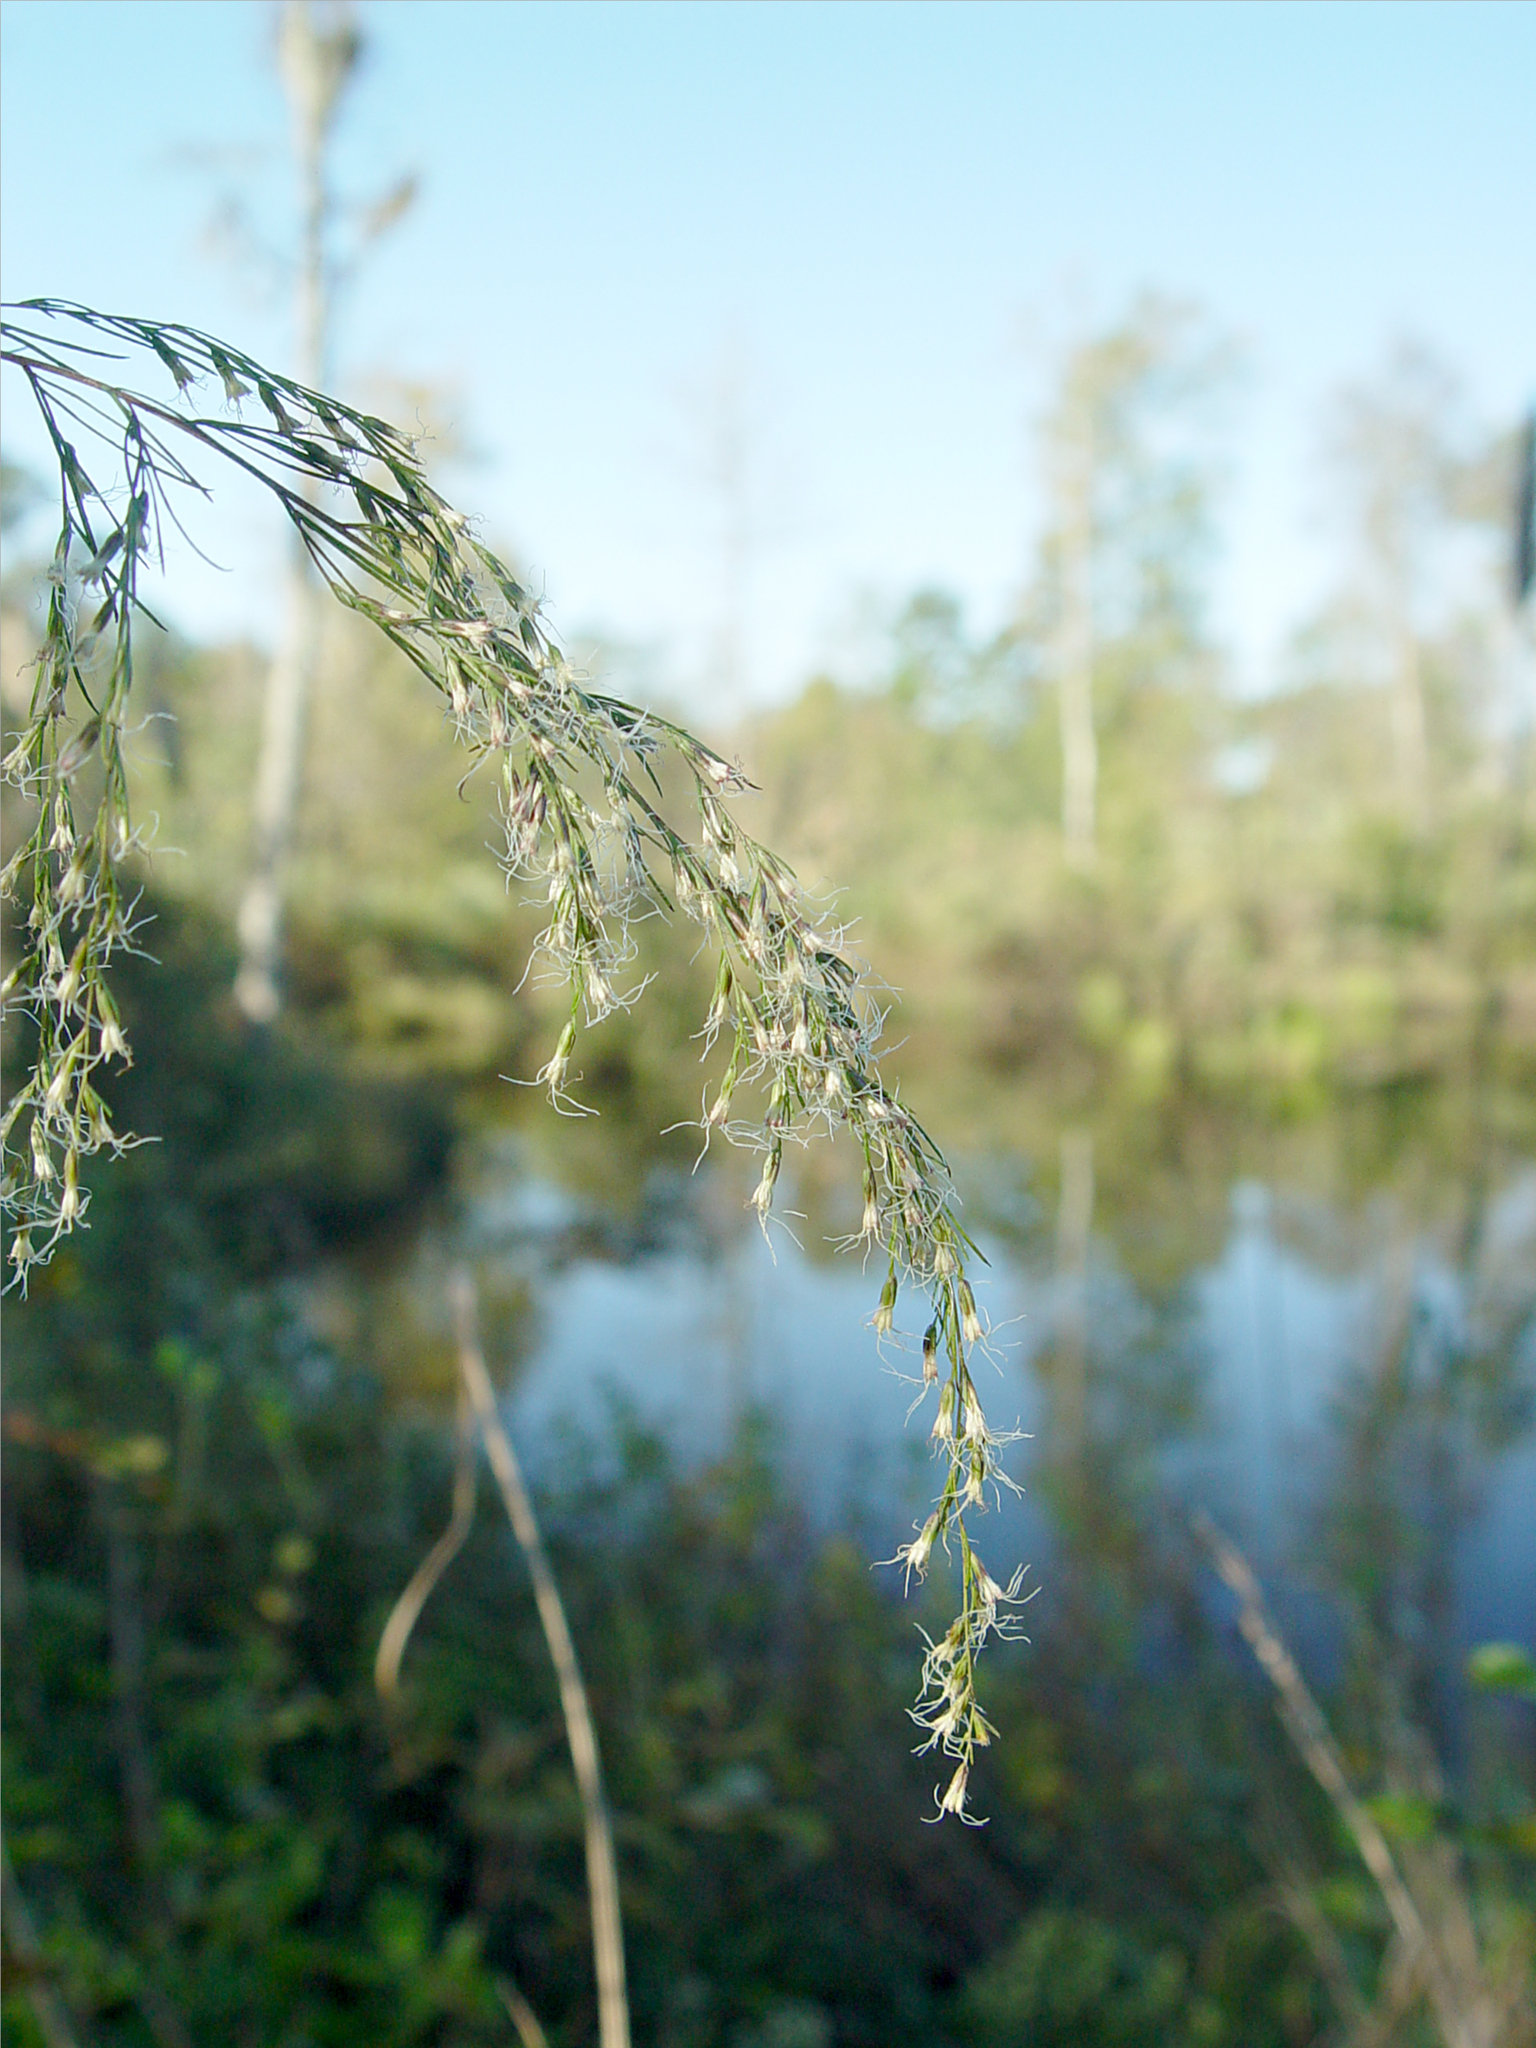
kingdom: Plantae
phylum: Tracheophyta
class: Magnoliopsida
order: Asterales
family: Asteraceae
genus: Eupatorium
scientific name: Eupatorium capillifolium
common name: Dog-fennel
